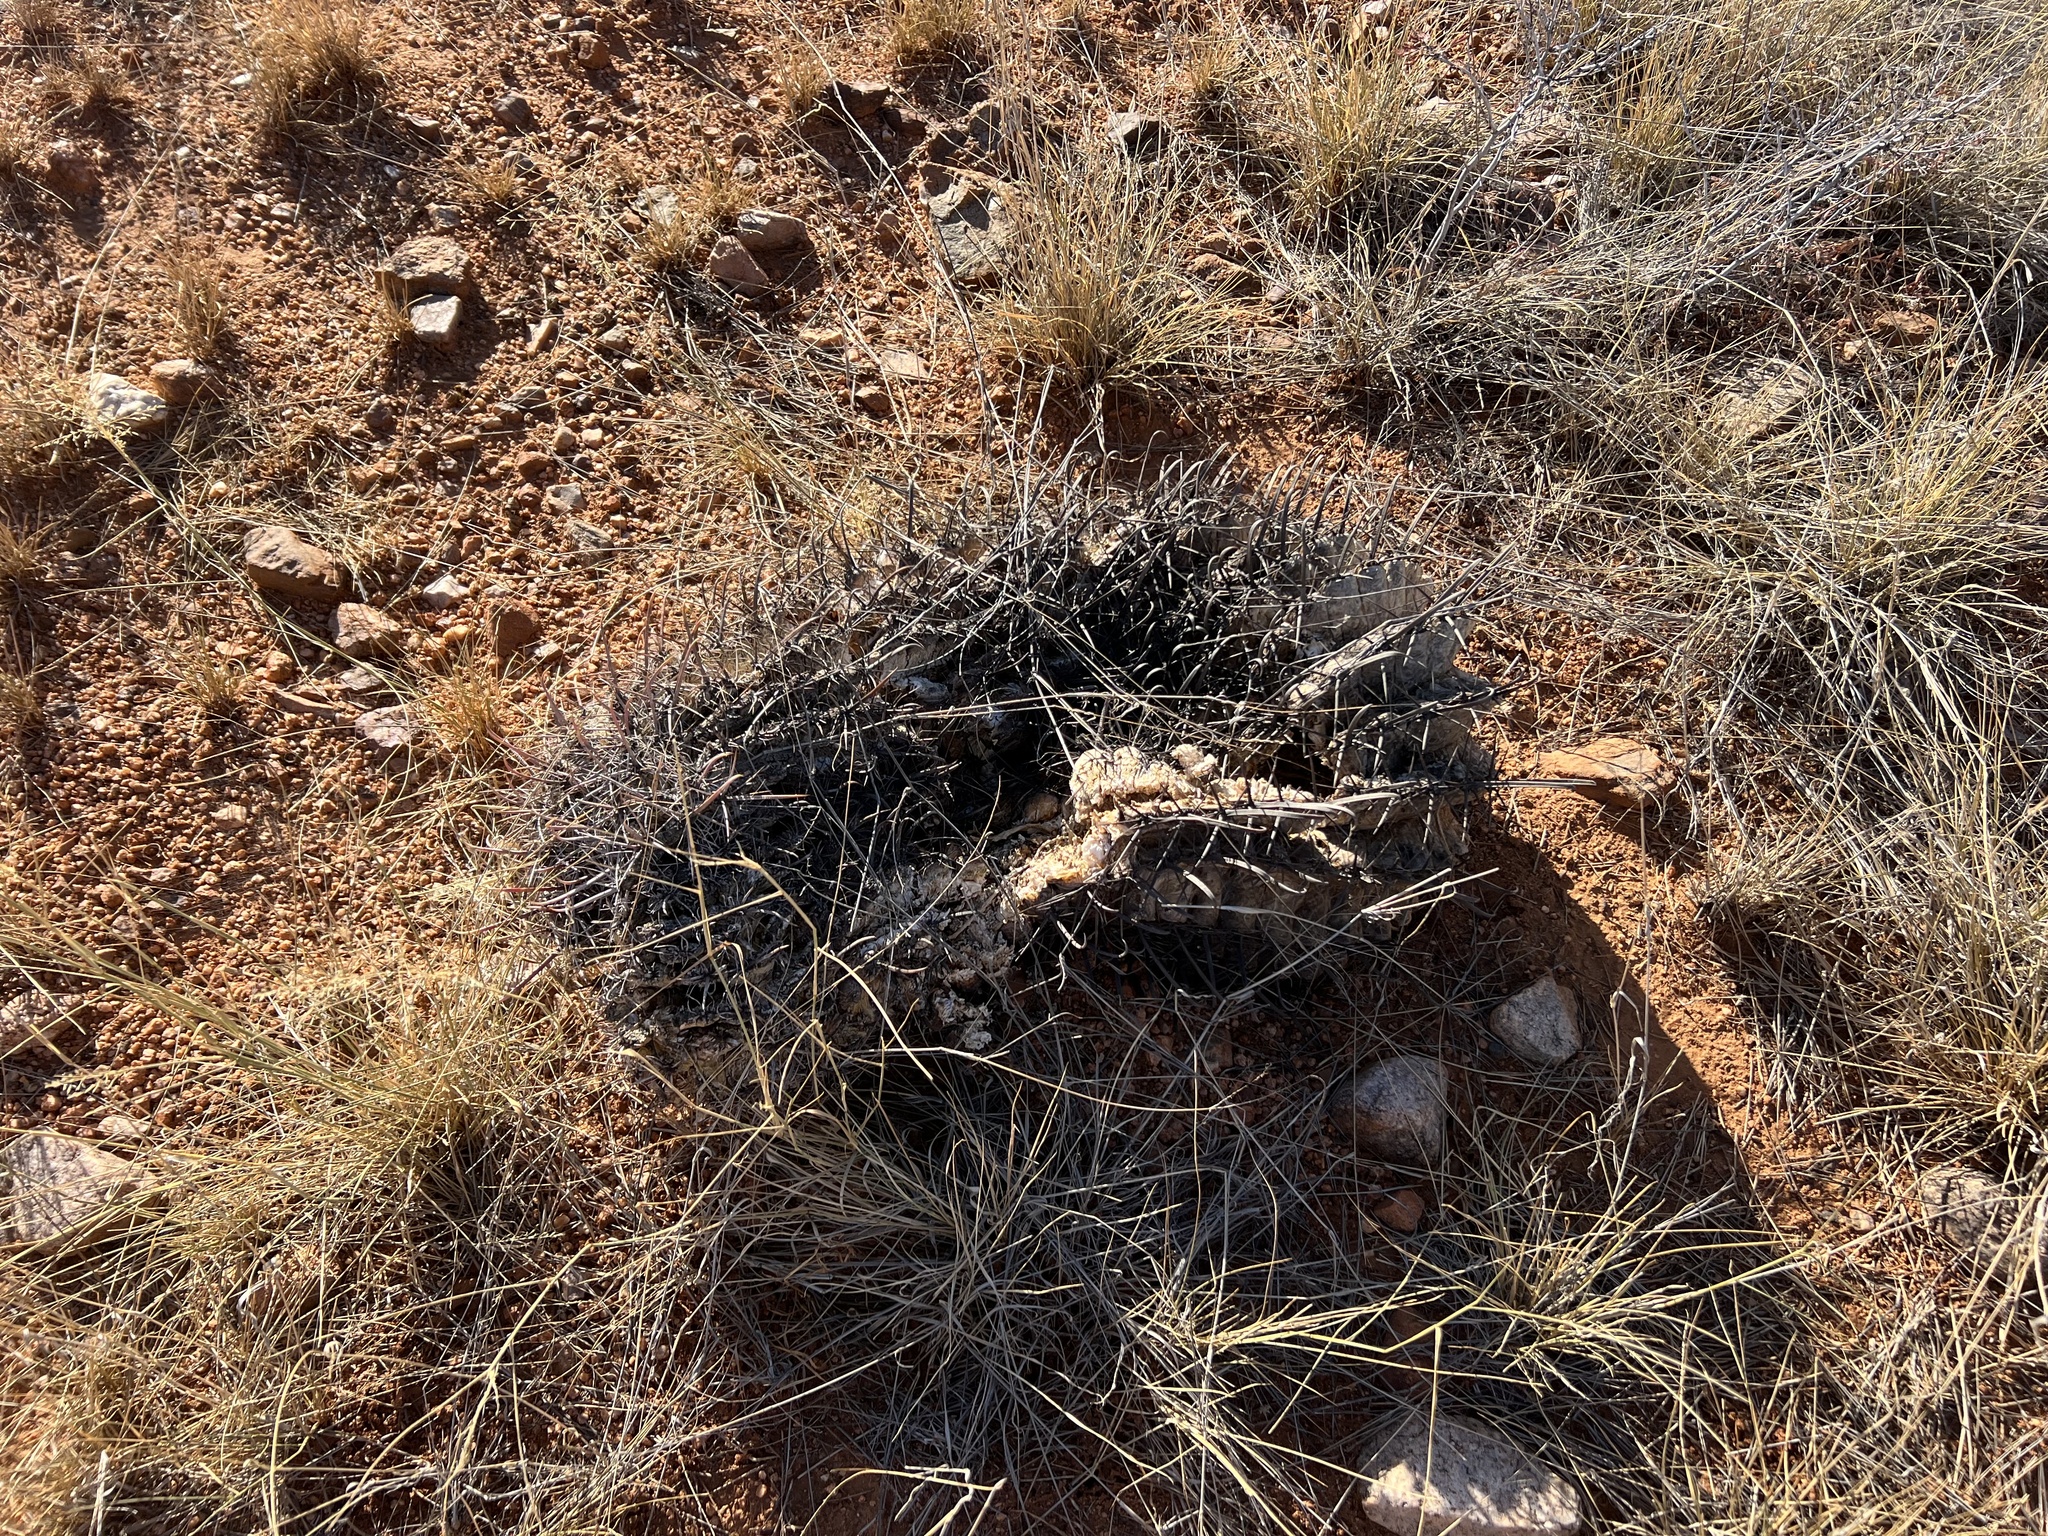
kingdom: Plantae
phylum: Tracheophyta
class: Magnoliopsida
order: Caryophyllales
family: Cactaceae
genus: Ferocactus
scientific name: Ferocactus wislizeni
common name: Candy barrel cactus
